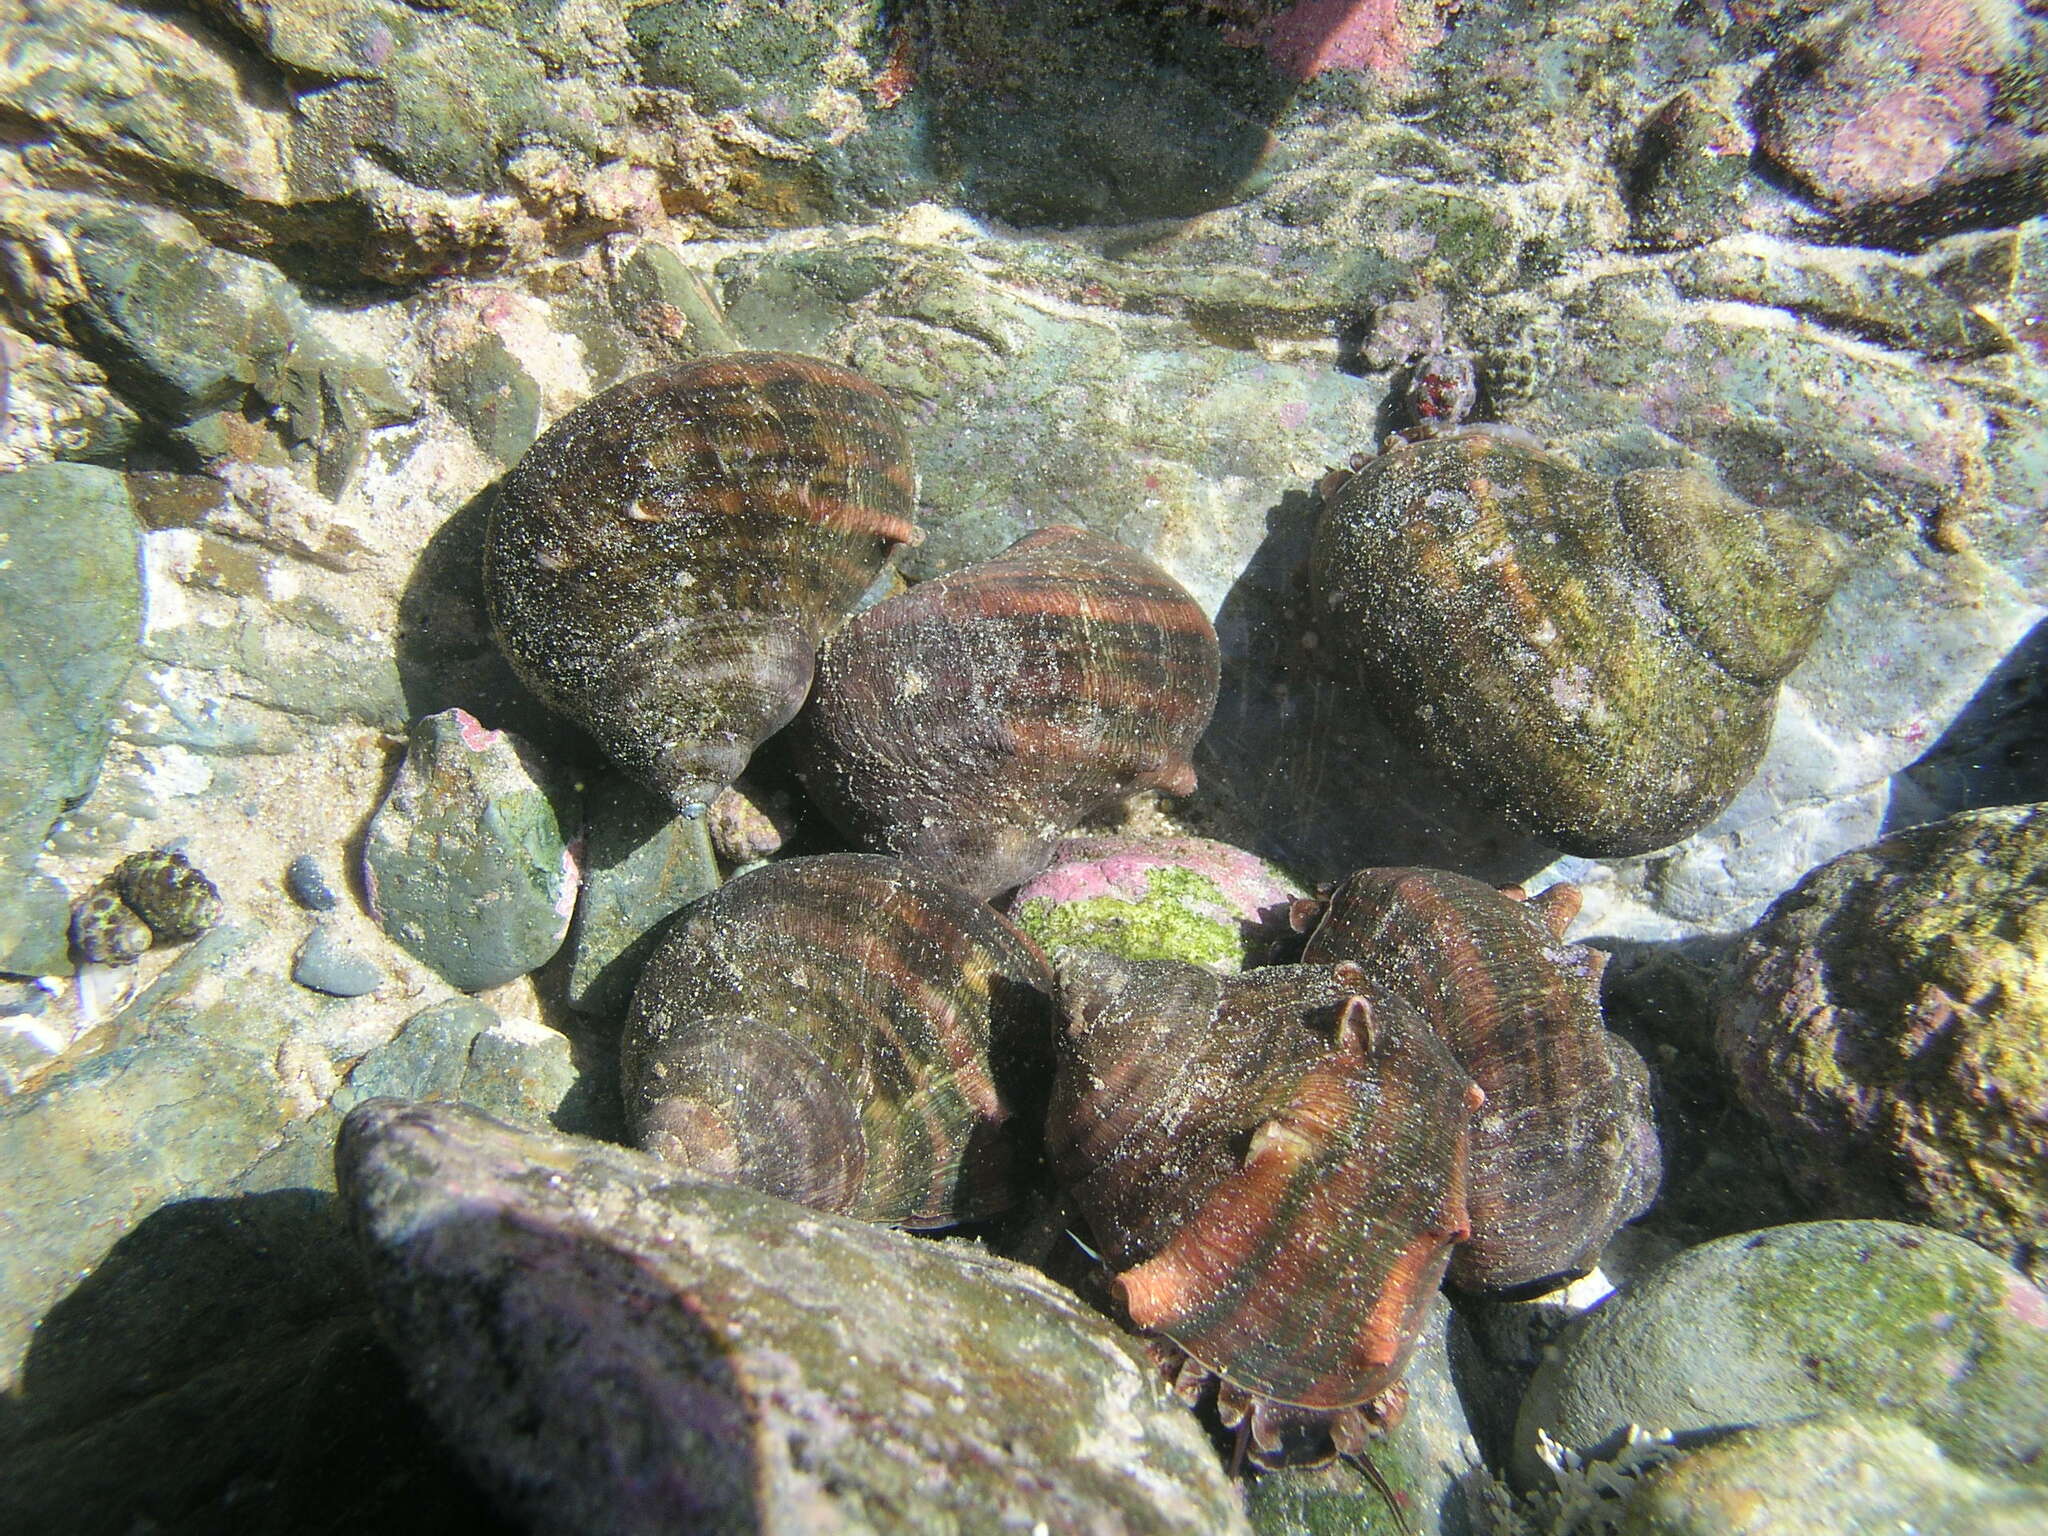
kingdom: Animalia
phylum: Mollusca
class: Gastropoda
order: Trochida
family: Turbinidae
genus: Turbo
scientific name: Turbo militaris
